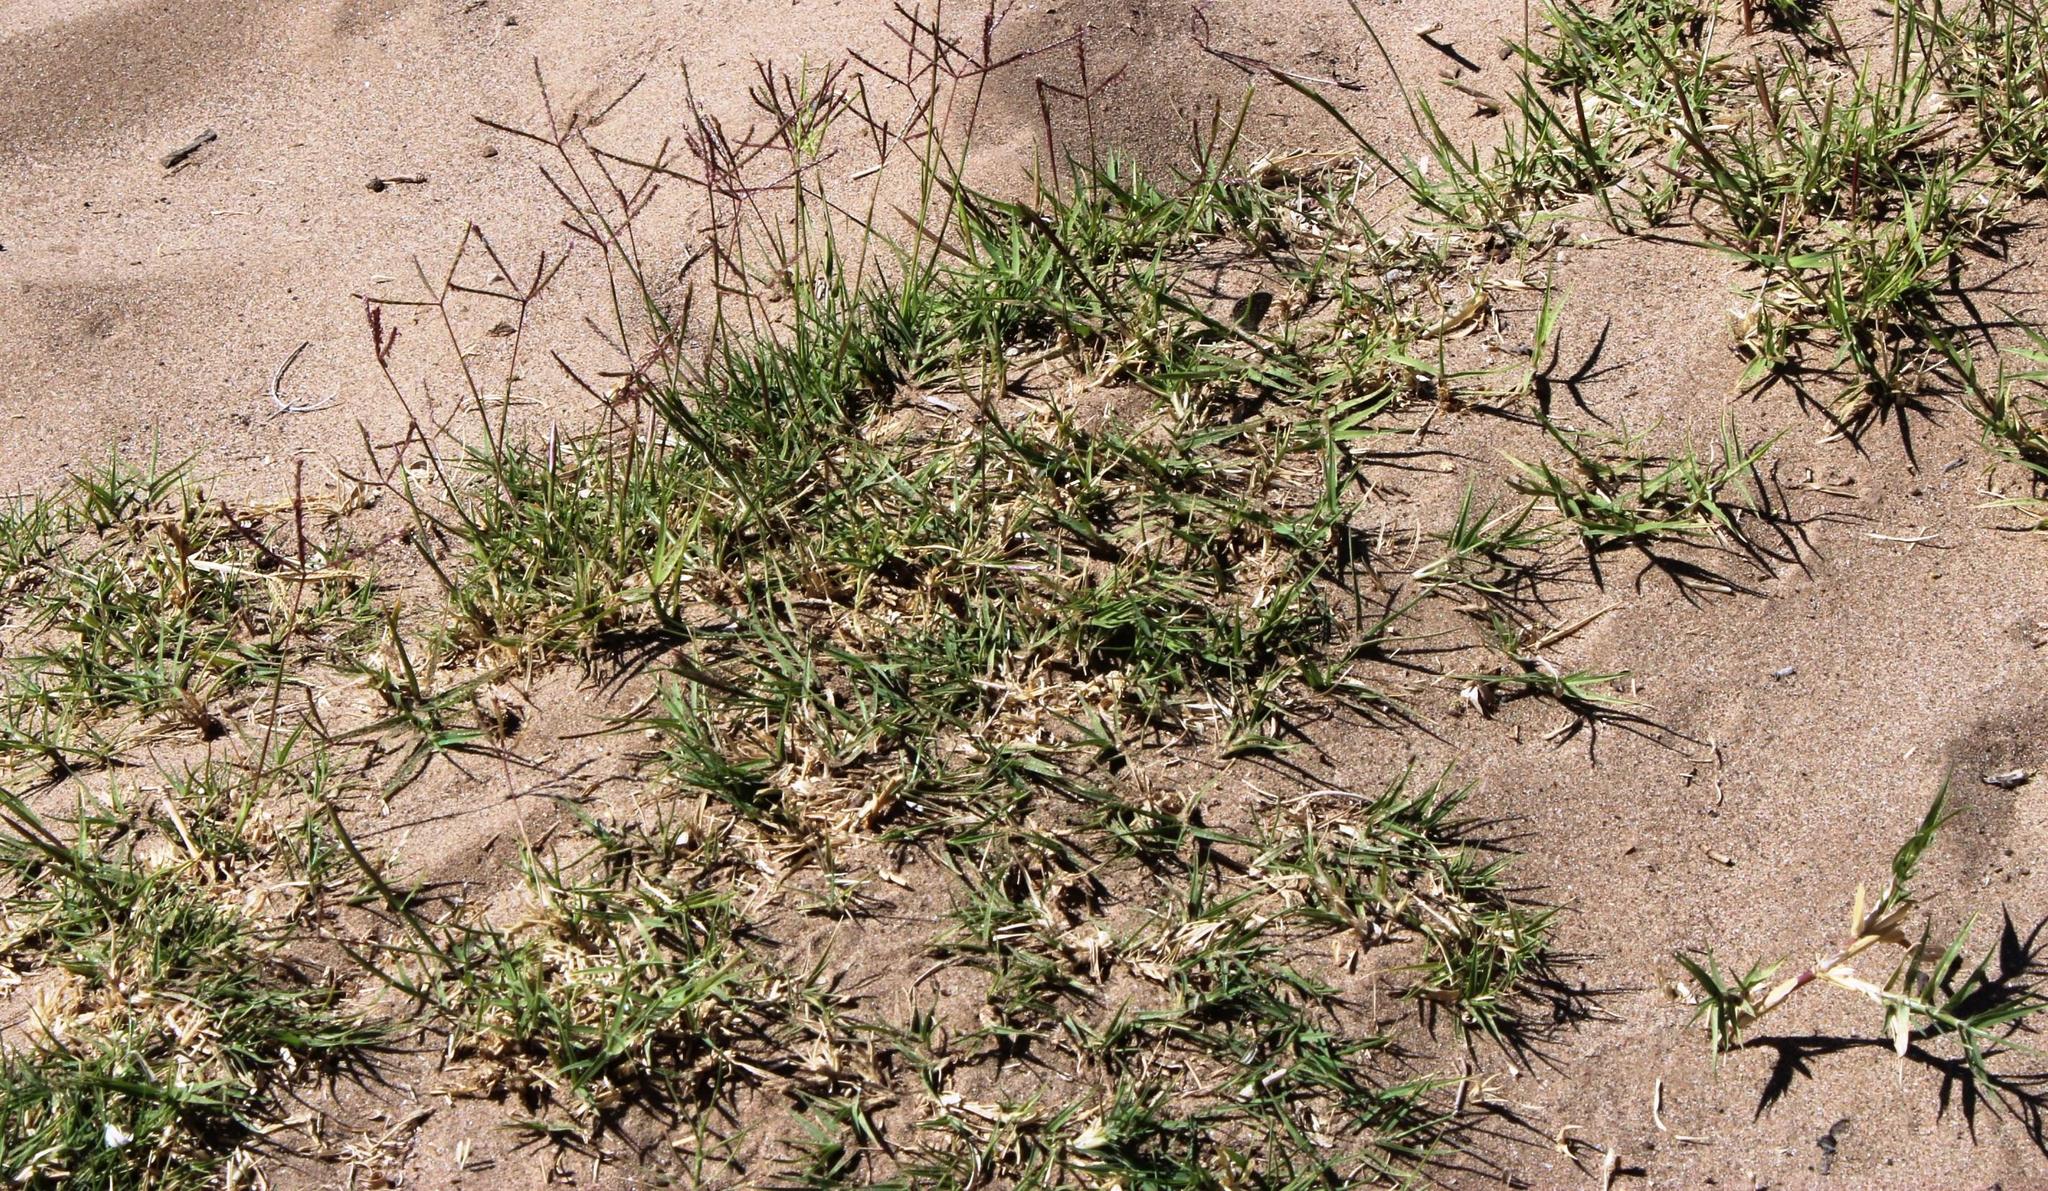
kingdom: Plantae
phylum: Tracheophyta
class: Liliopsida
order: Poales
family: Poaceae
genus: Cynodon
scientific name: Cynodon dactylon
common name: Bermuda grass
